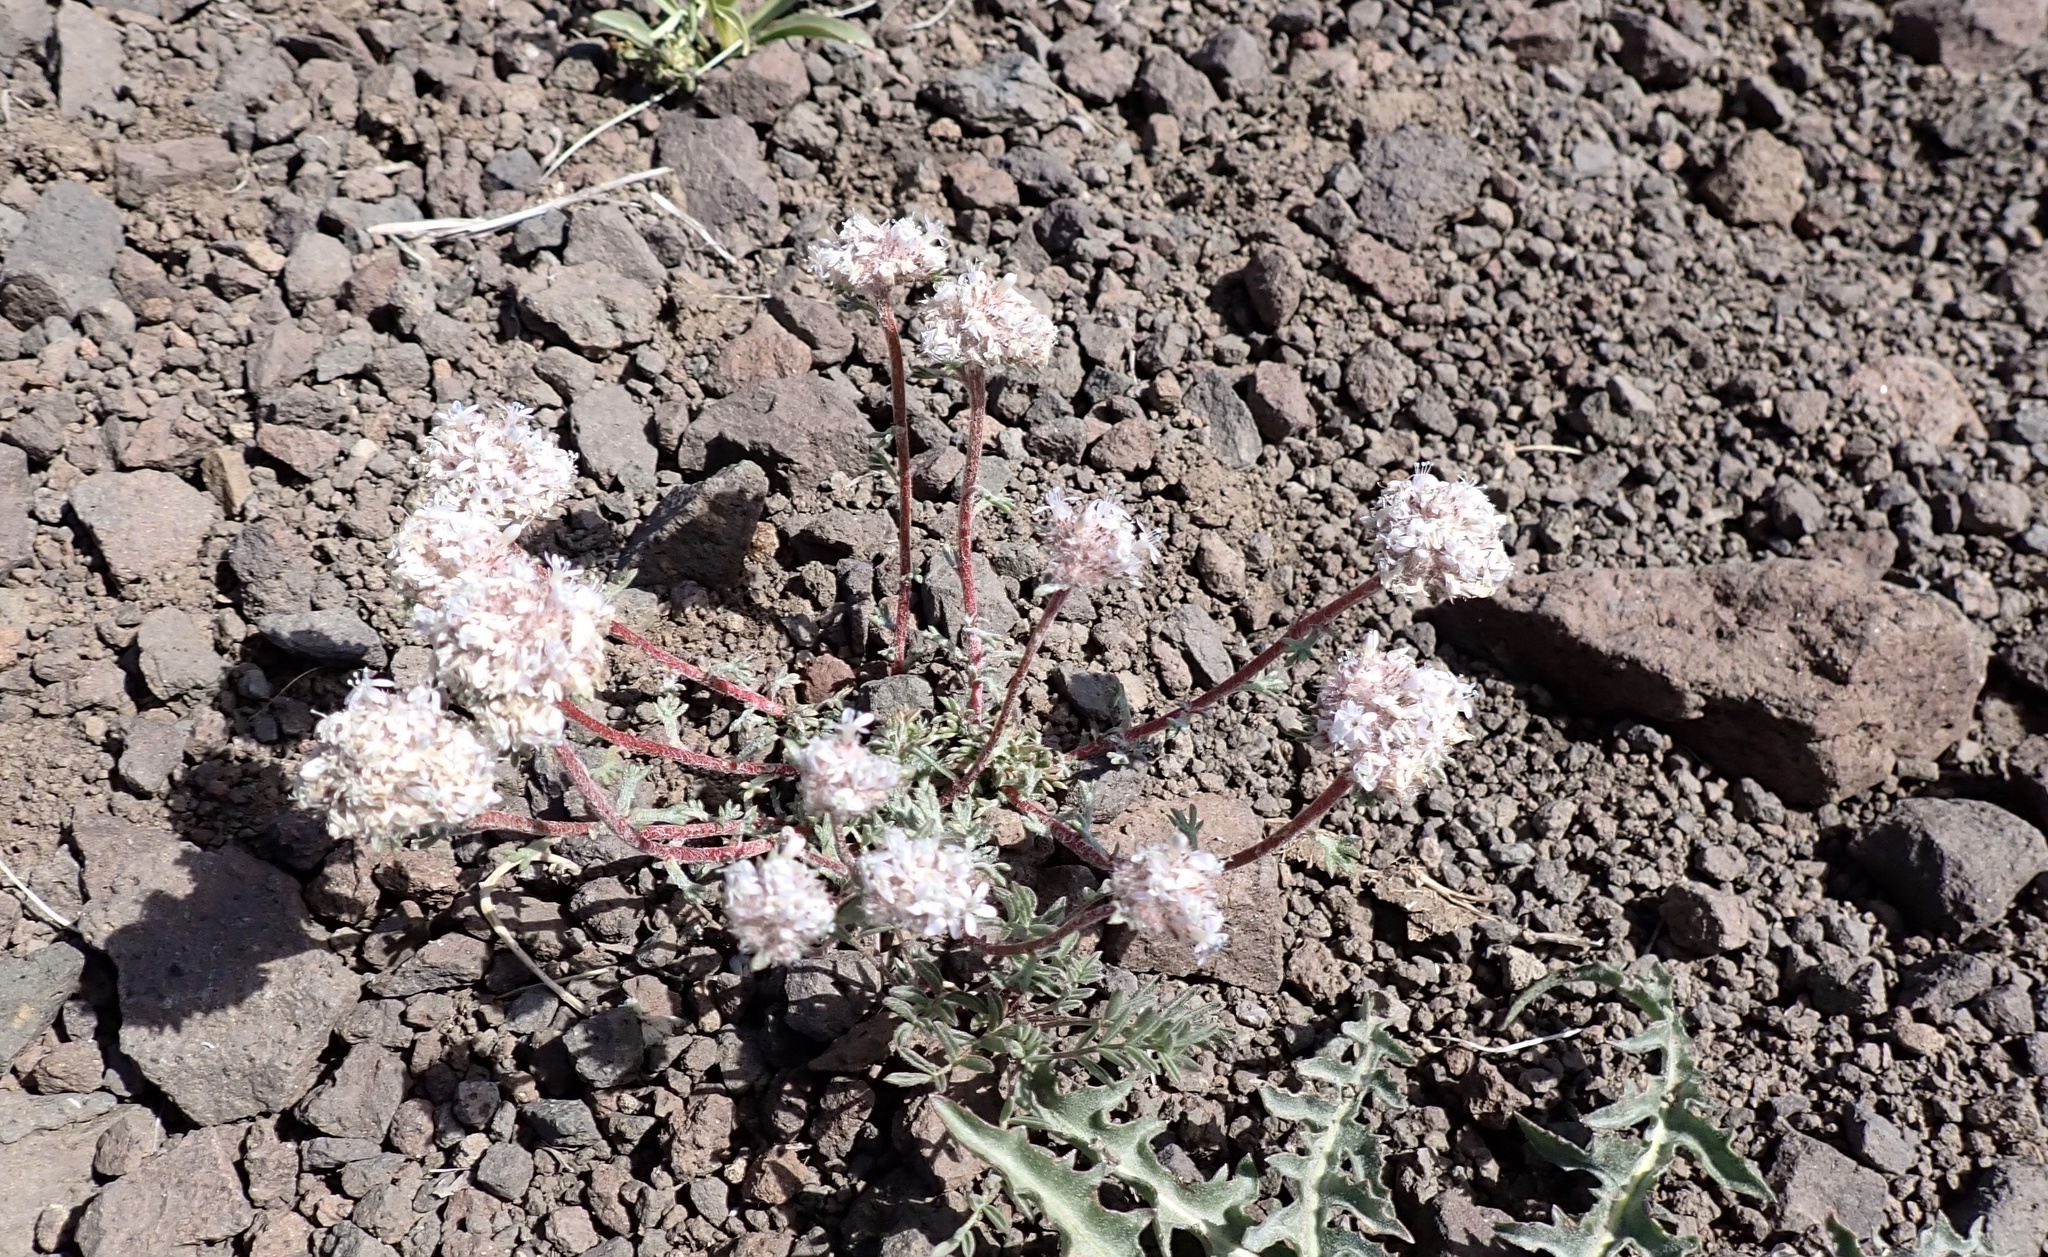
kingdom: Plantae
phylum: Tracheophyta
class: Magnoliopsida
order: Ericales
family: Polemoniaceae
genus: Ipomopsis
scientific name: Ipomopsis congesta
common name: Ball-head gilia
